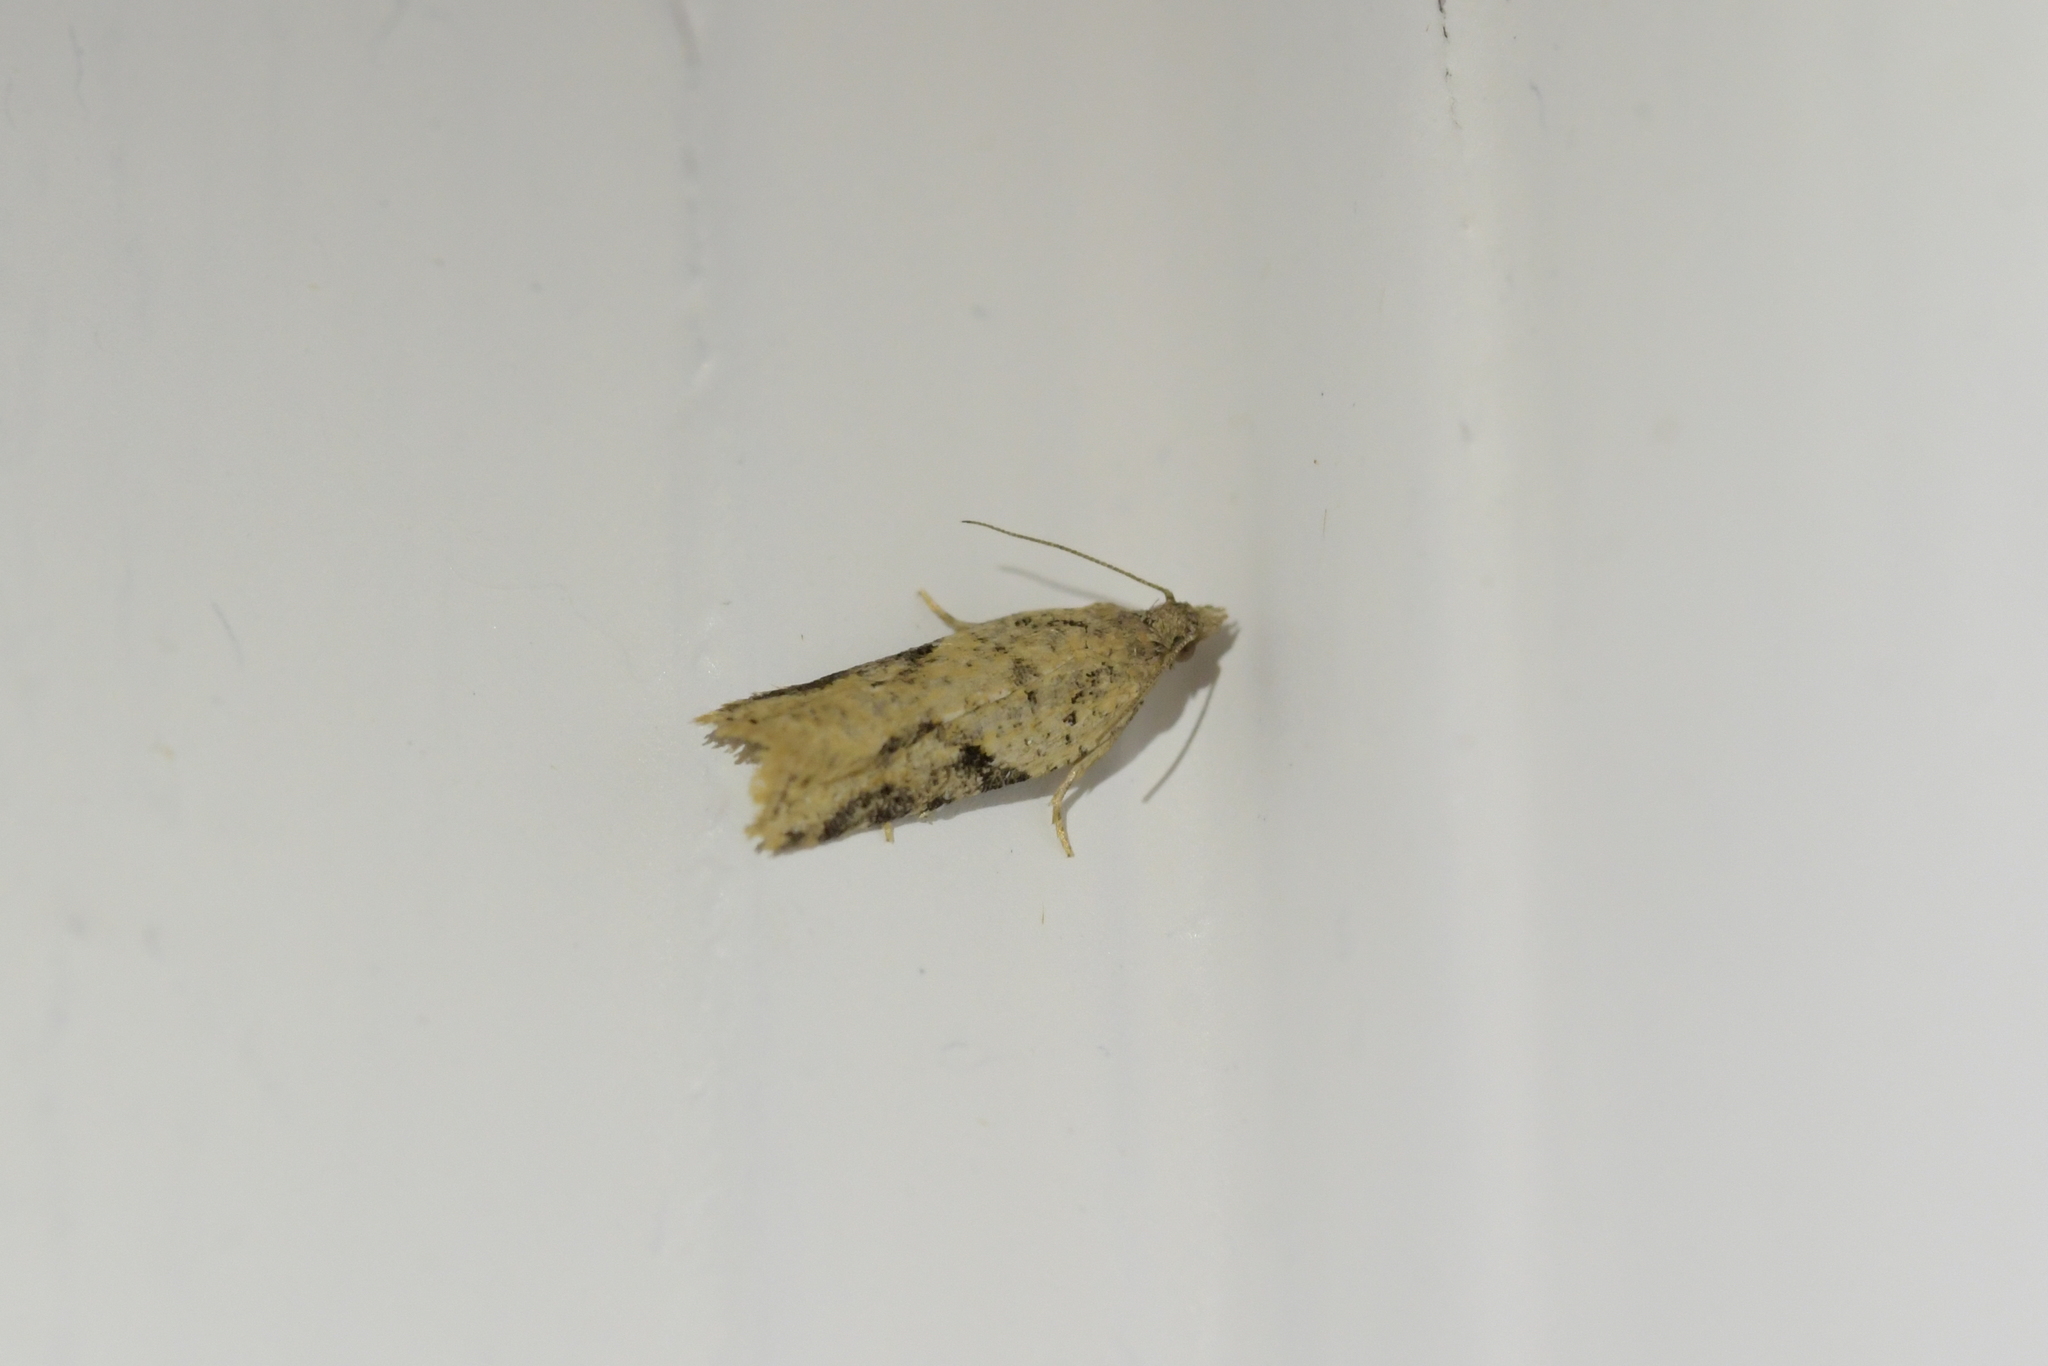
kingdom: Animalia
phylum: Arthropoda
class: Insecta
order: Lepidoptera
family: Tortricidae
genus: Capua
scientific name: Capua semiferana
